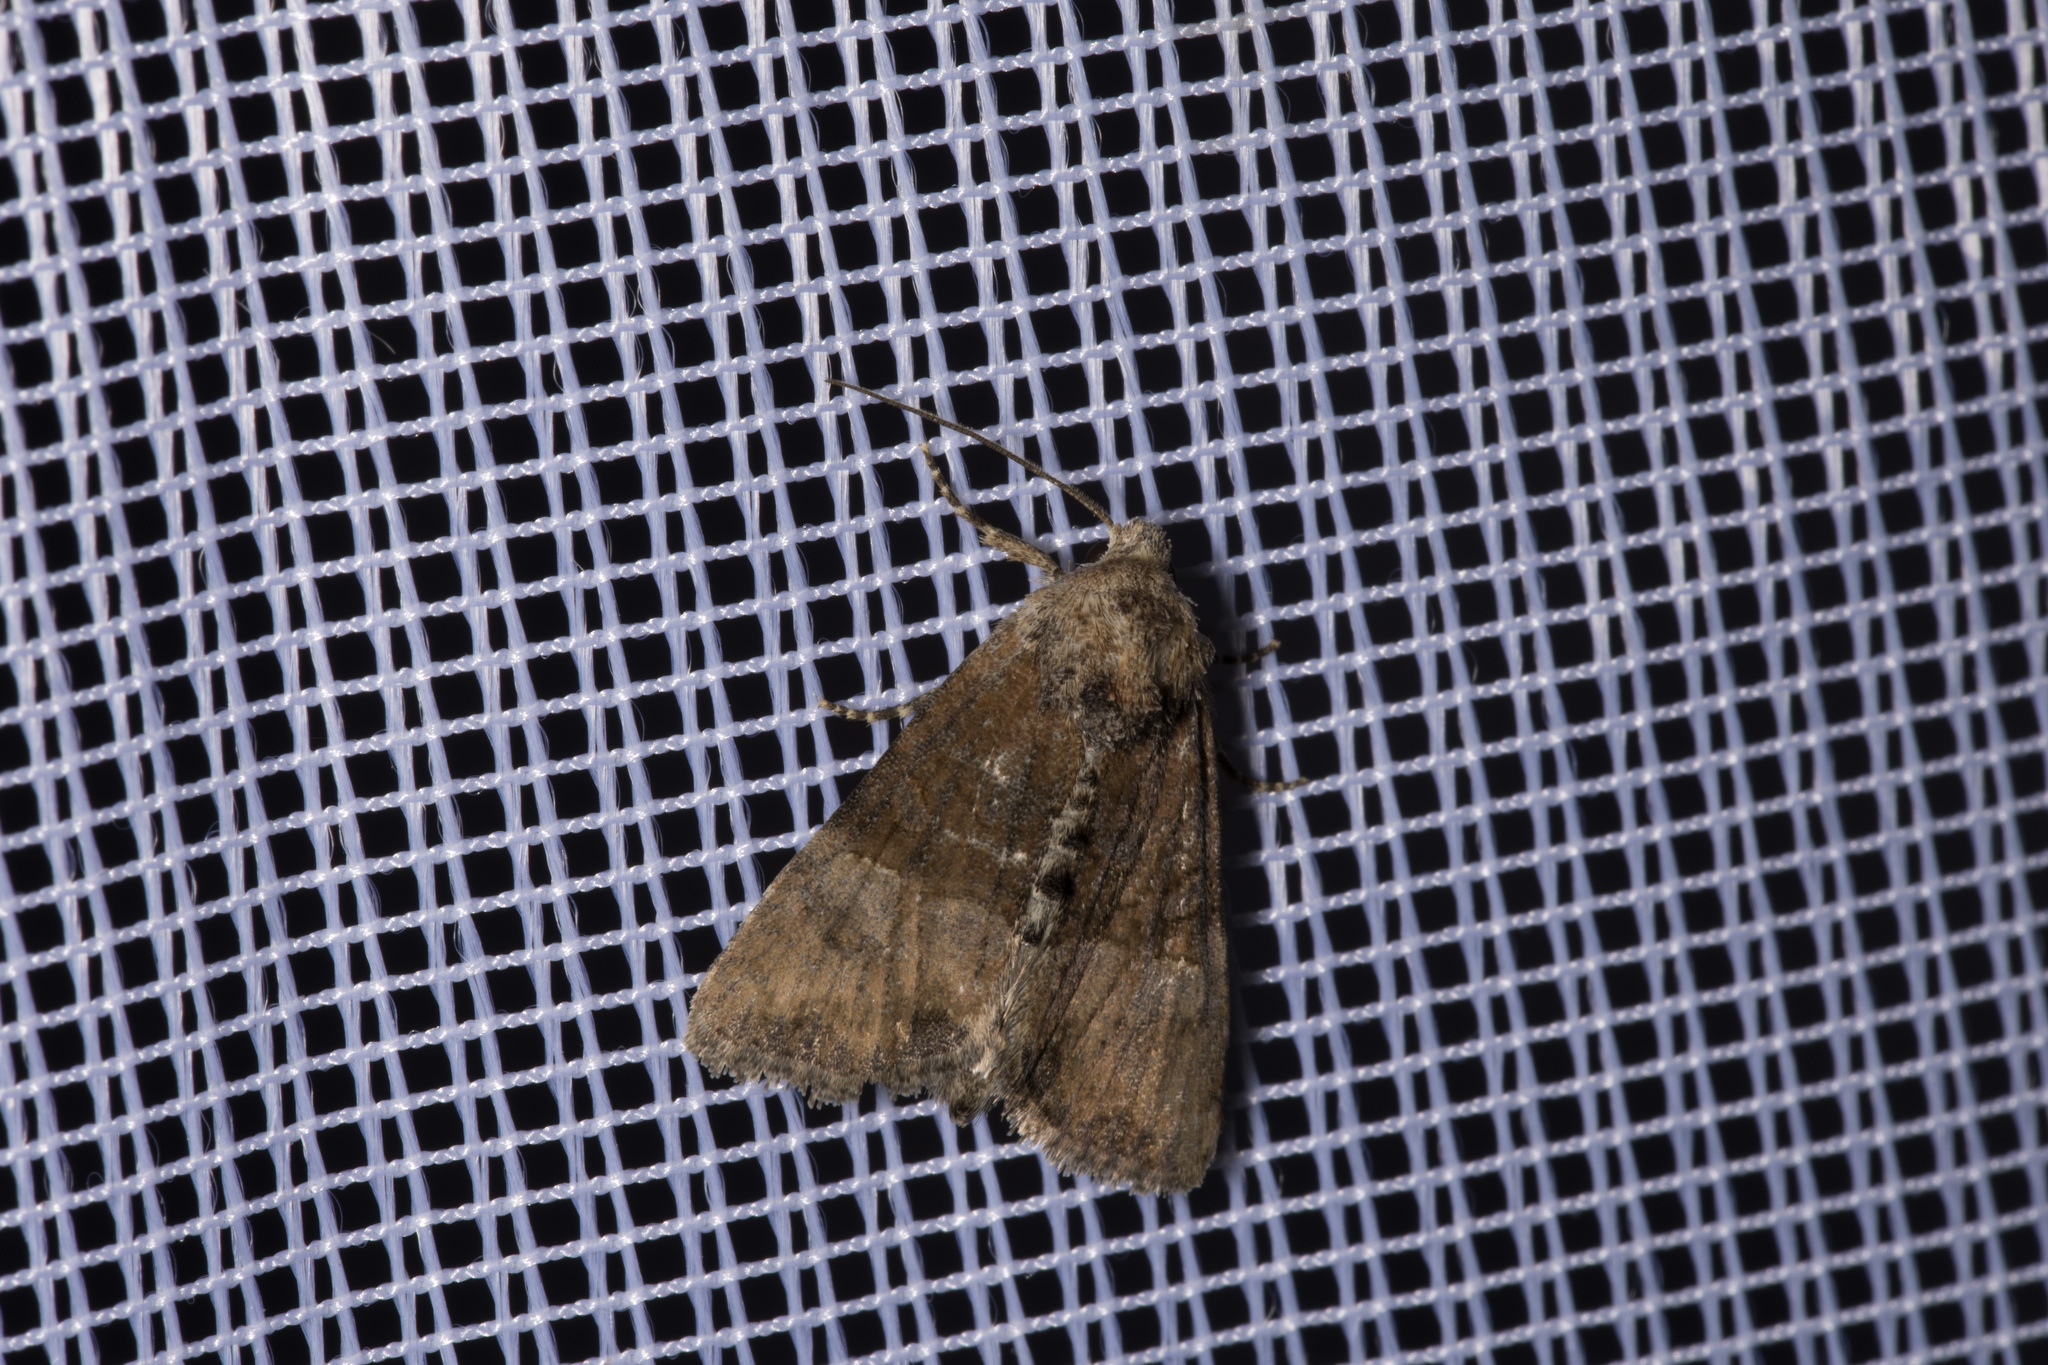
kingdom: Animalia
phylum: Arthropoda
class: Insecta
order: Lepidoptera
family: Noctuidae
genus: Mesoligia
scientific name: Mesoligia furuncula
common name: Cloaked minor
